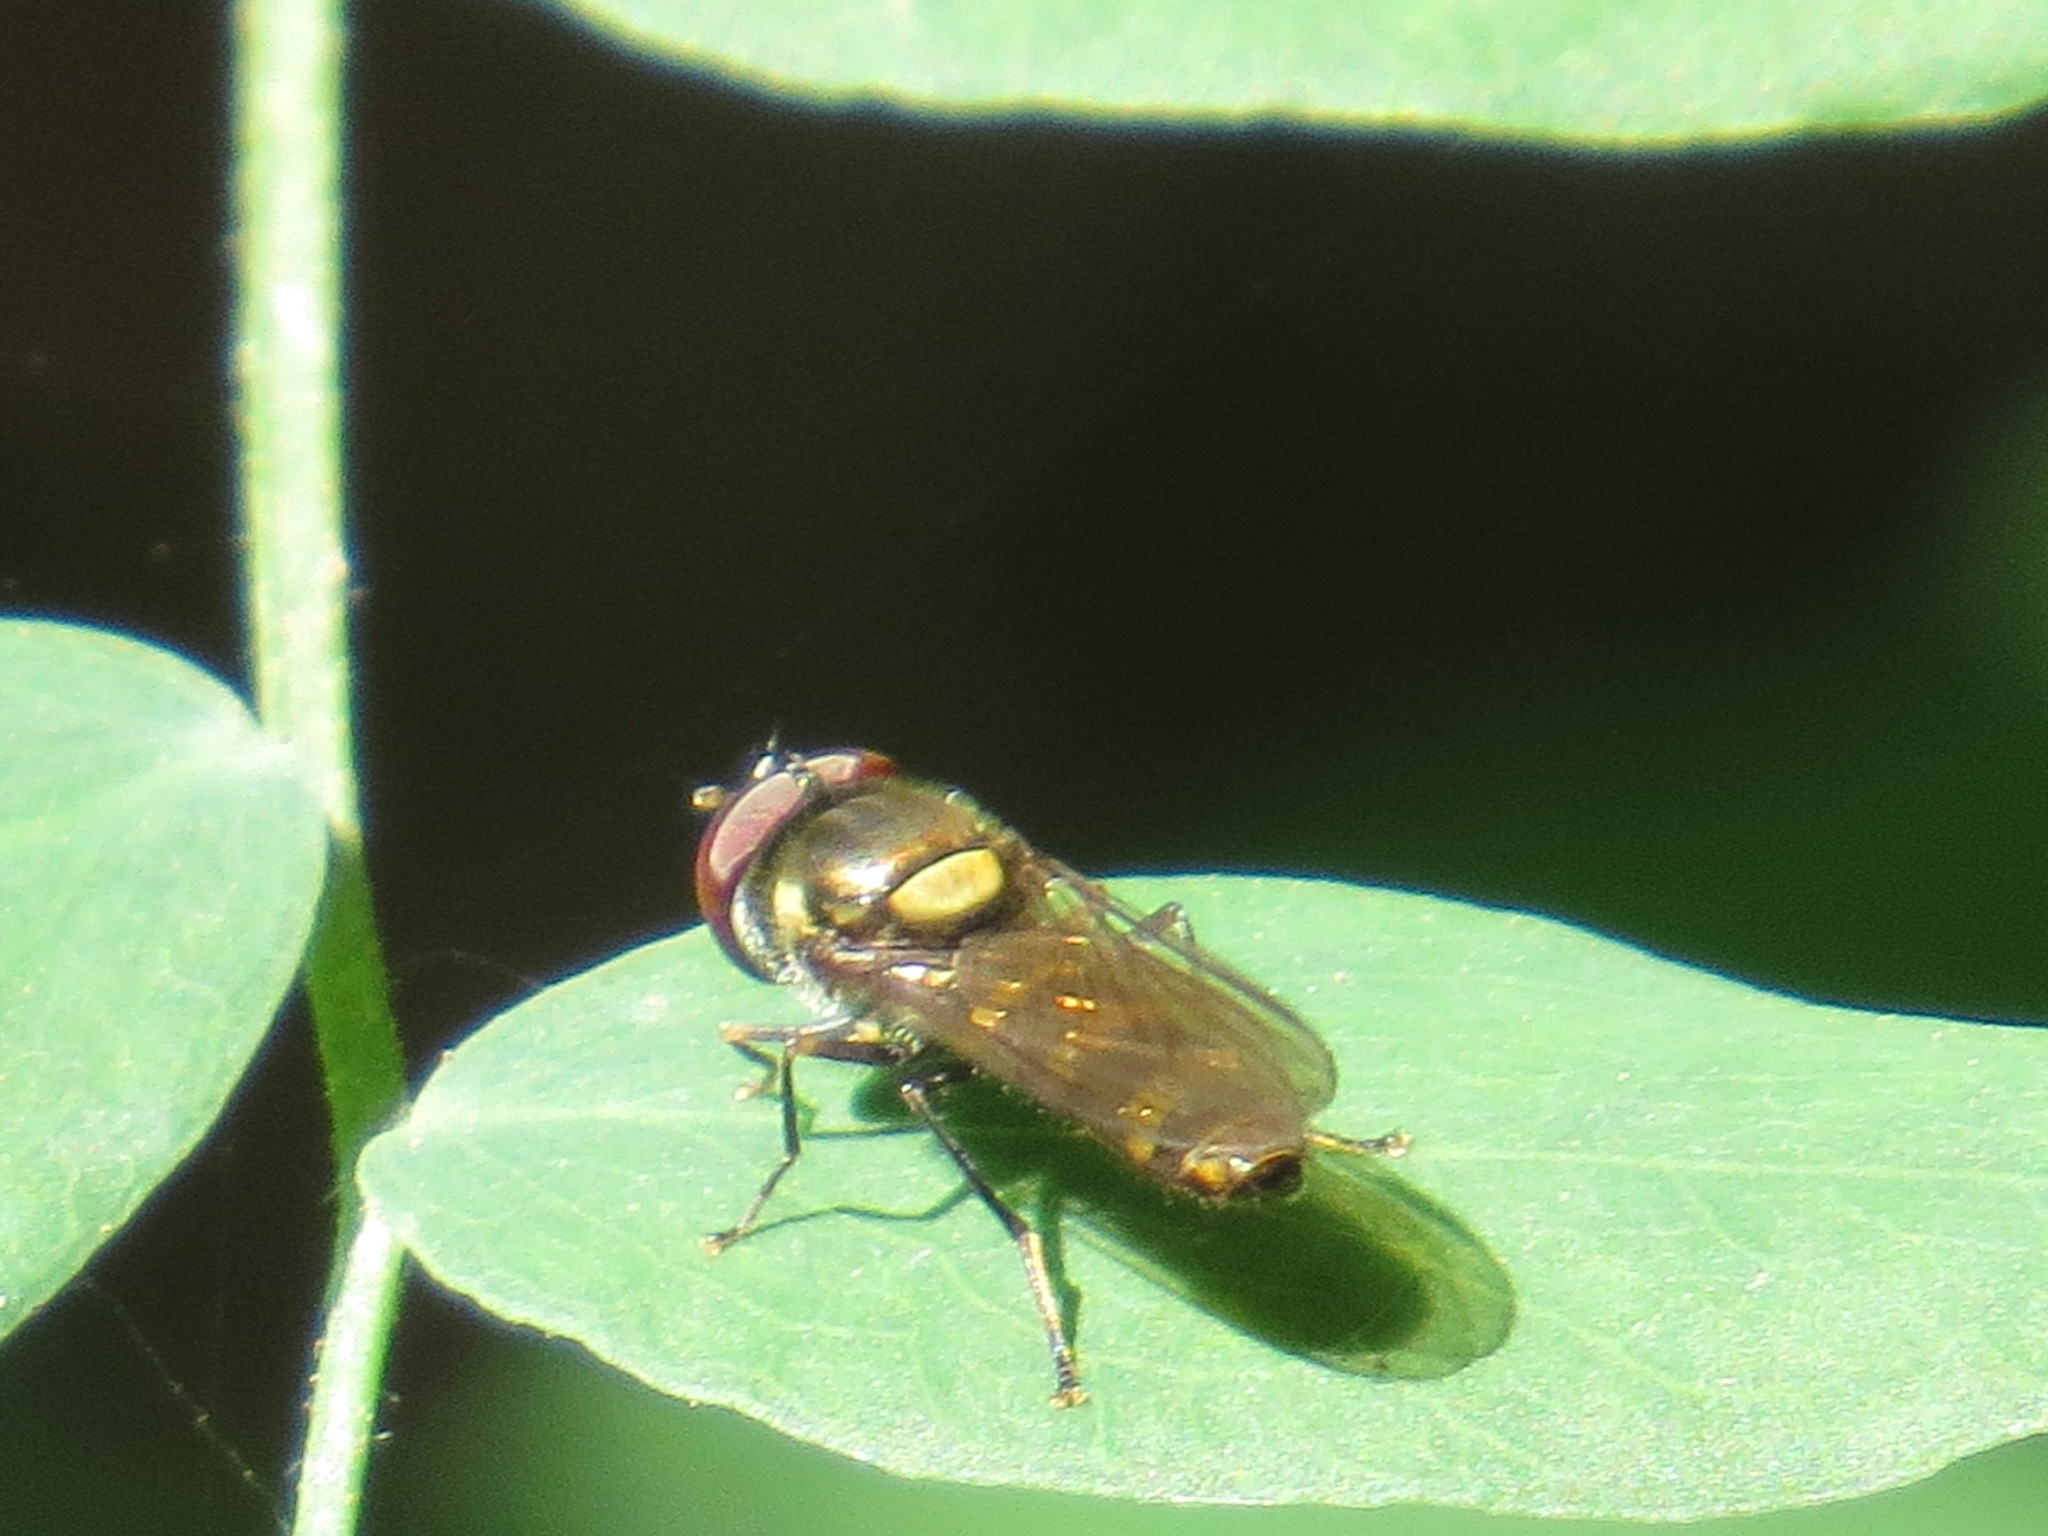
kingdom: Animalia
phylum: Arthropoda
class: Insecta
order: Diptera
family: Syrphidae
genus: Fazia
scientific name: Fazia micrura
